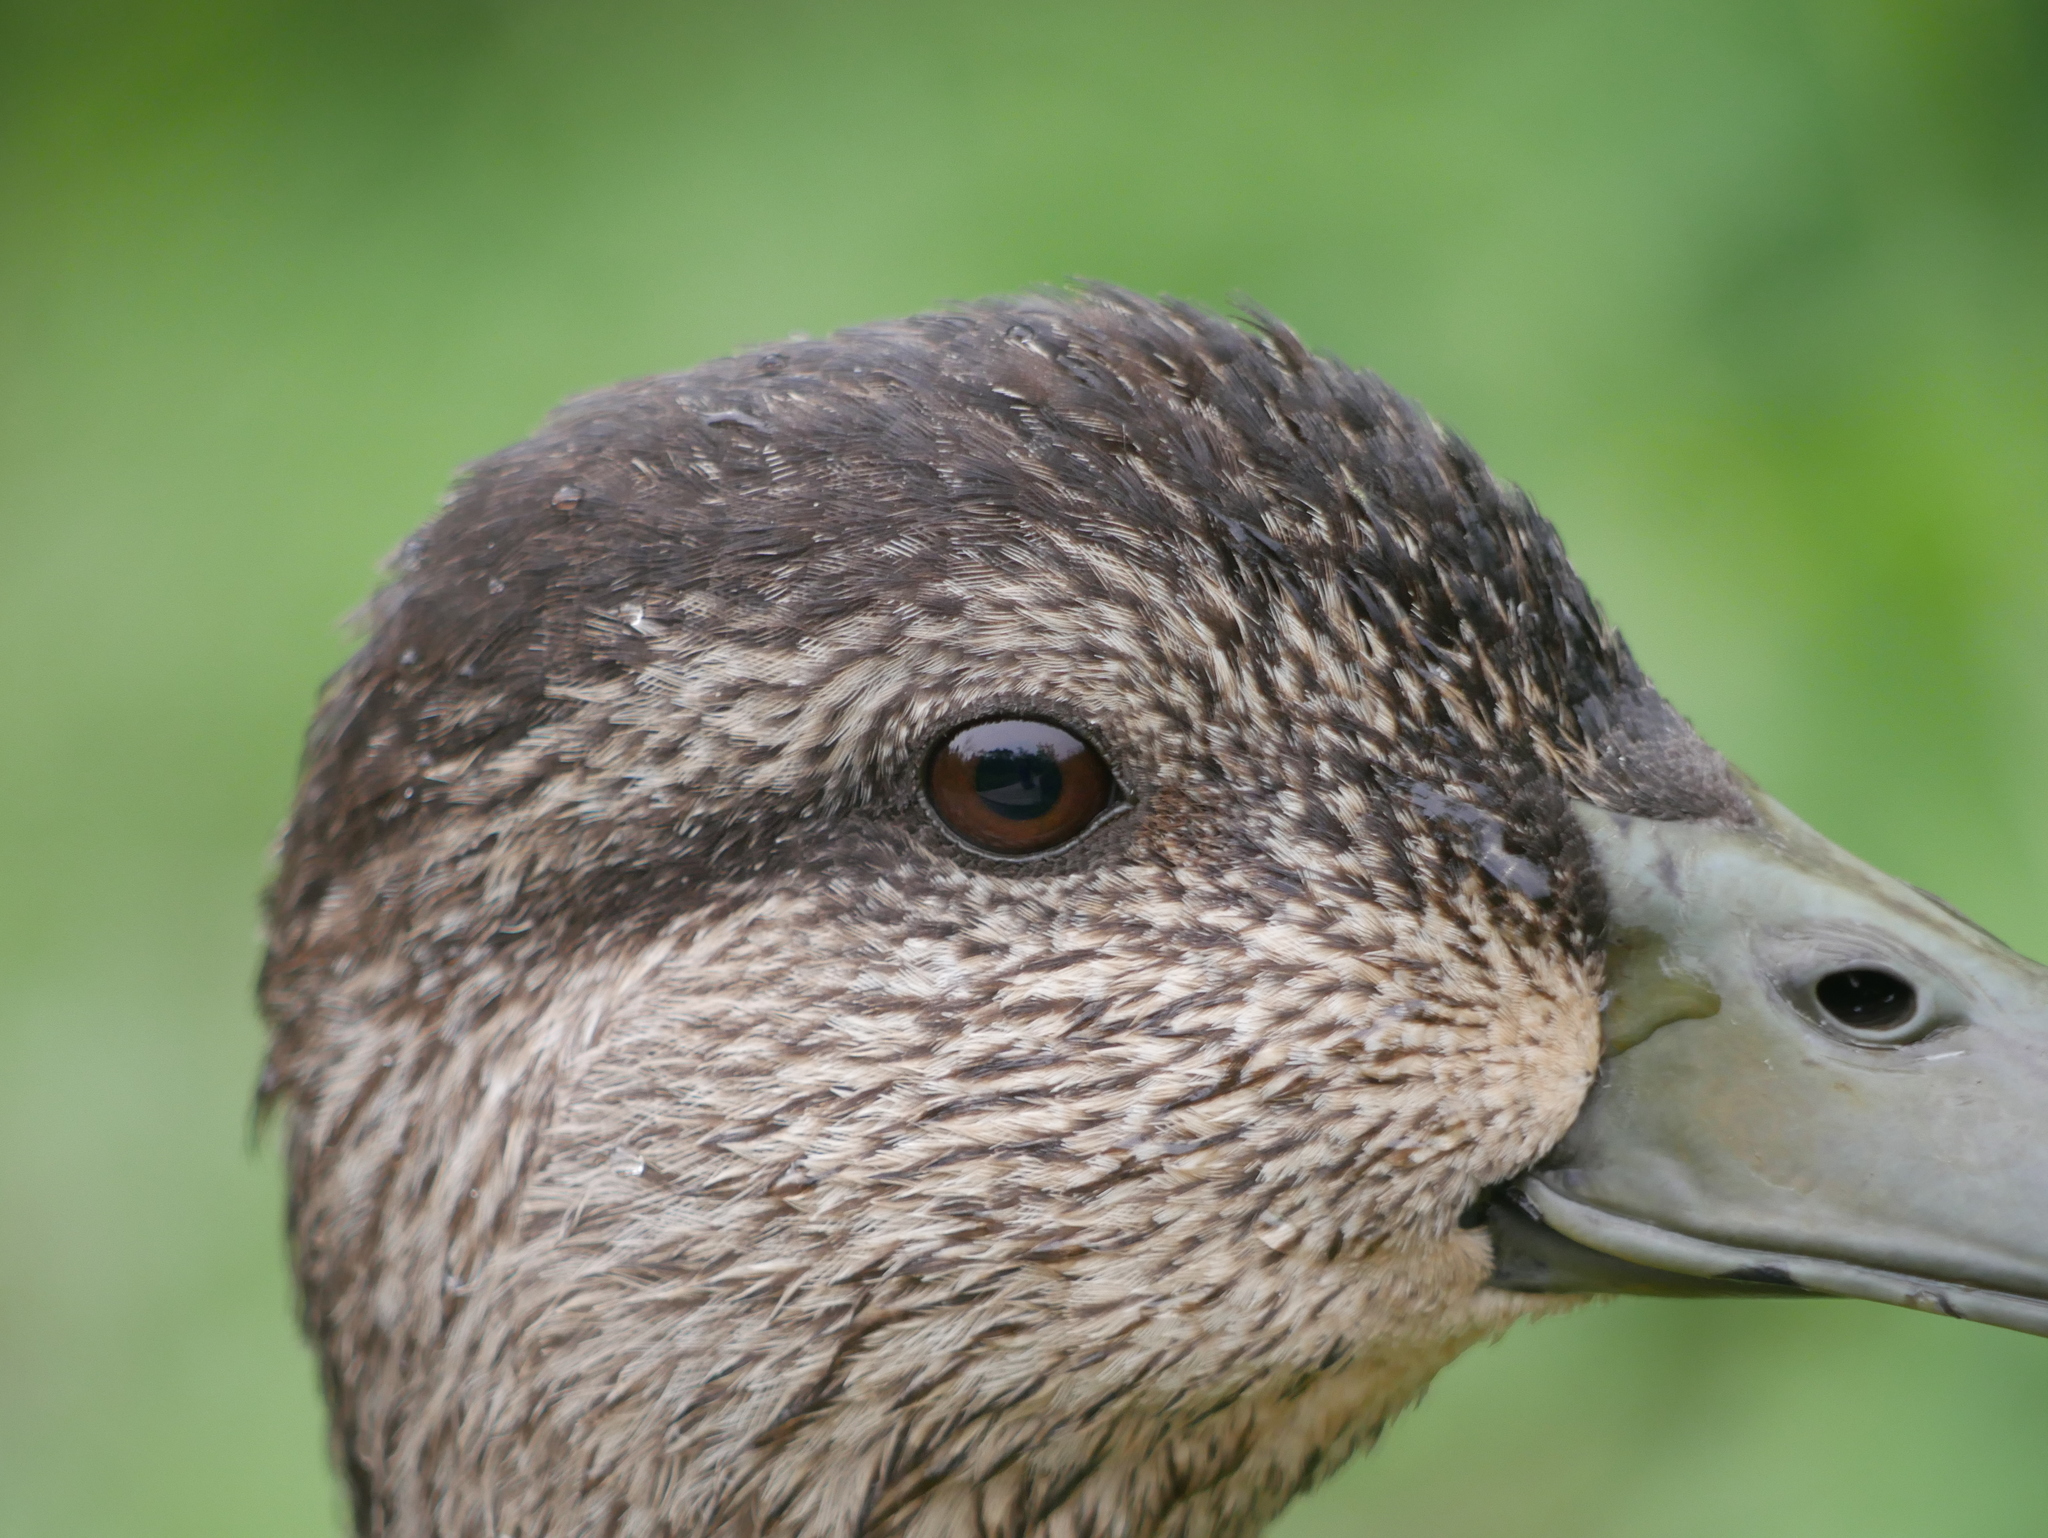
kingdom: Animalia
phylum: Chordata
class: Aves
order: Anseriformes
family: Anatidae
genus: Anas
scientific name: Anas rubripes
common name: American black duck
